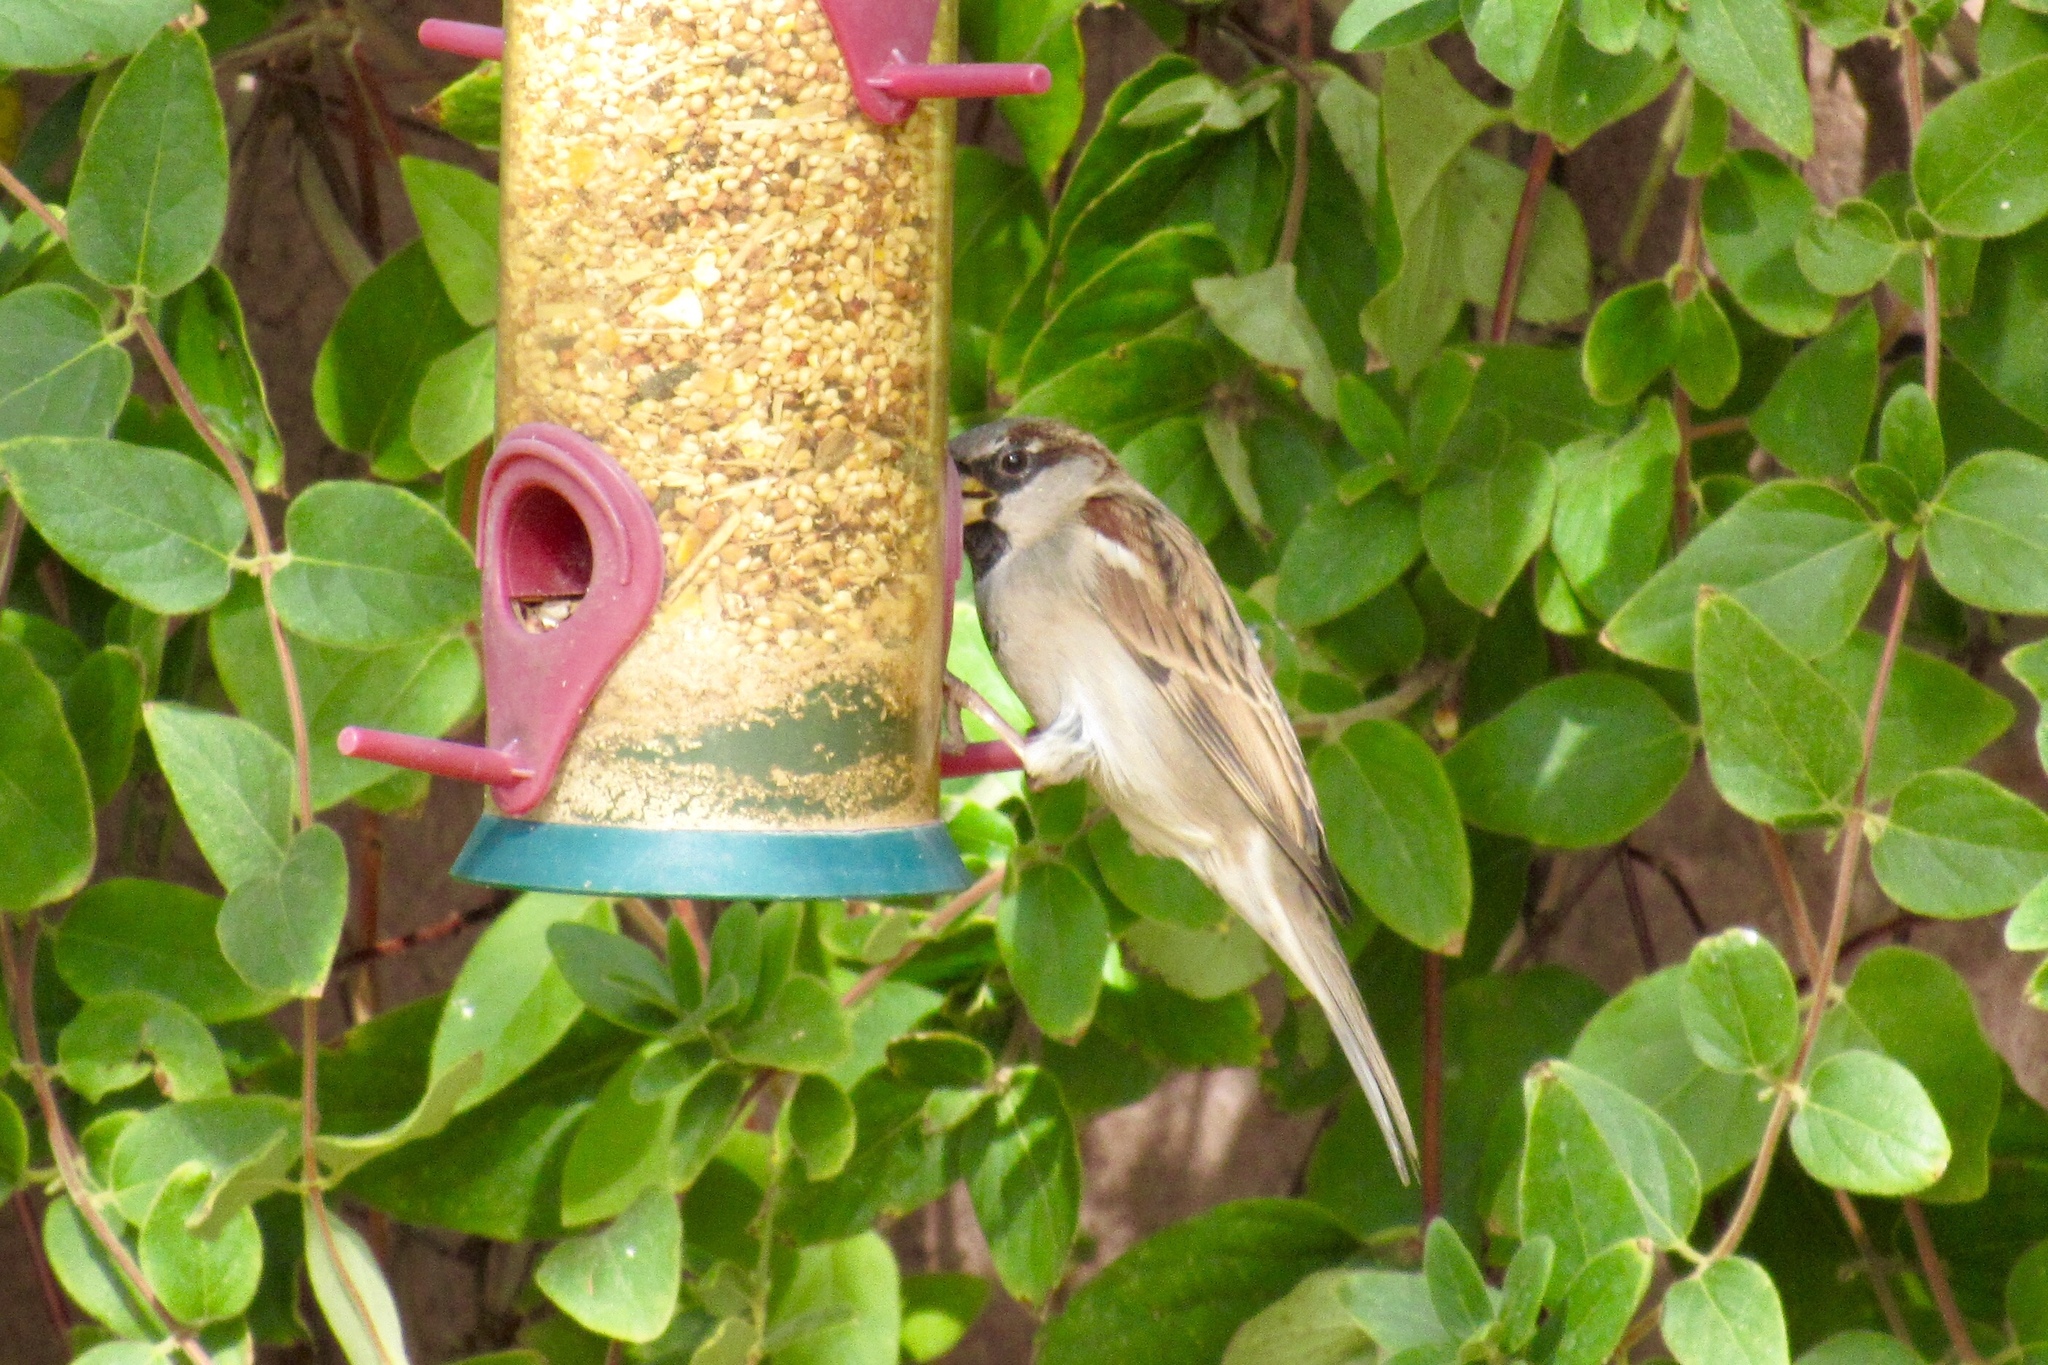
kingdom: Animalia
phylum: Chordata
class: Aves
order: Passeriformes
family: Passeridae
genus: Passer
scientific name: Passer domesticus
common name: House sparrow
